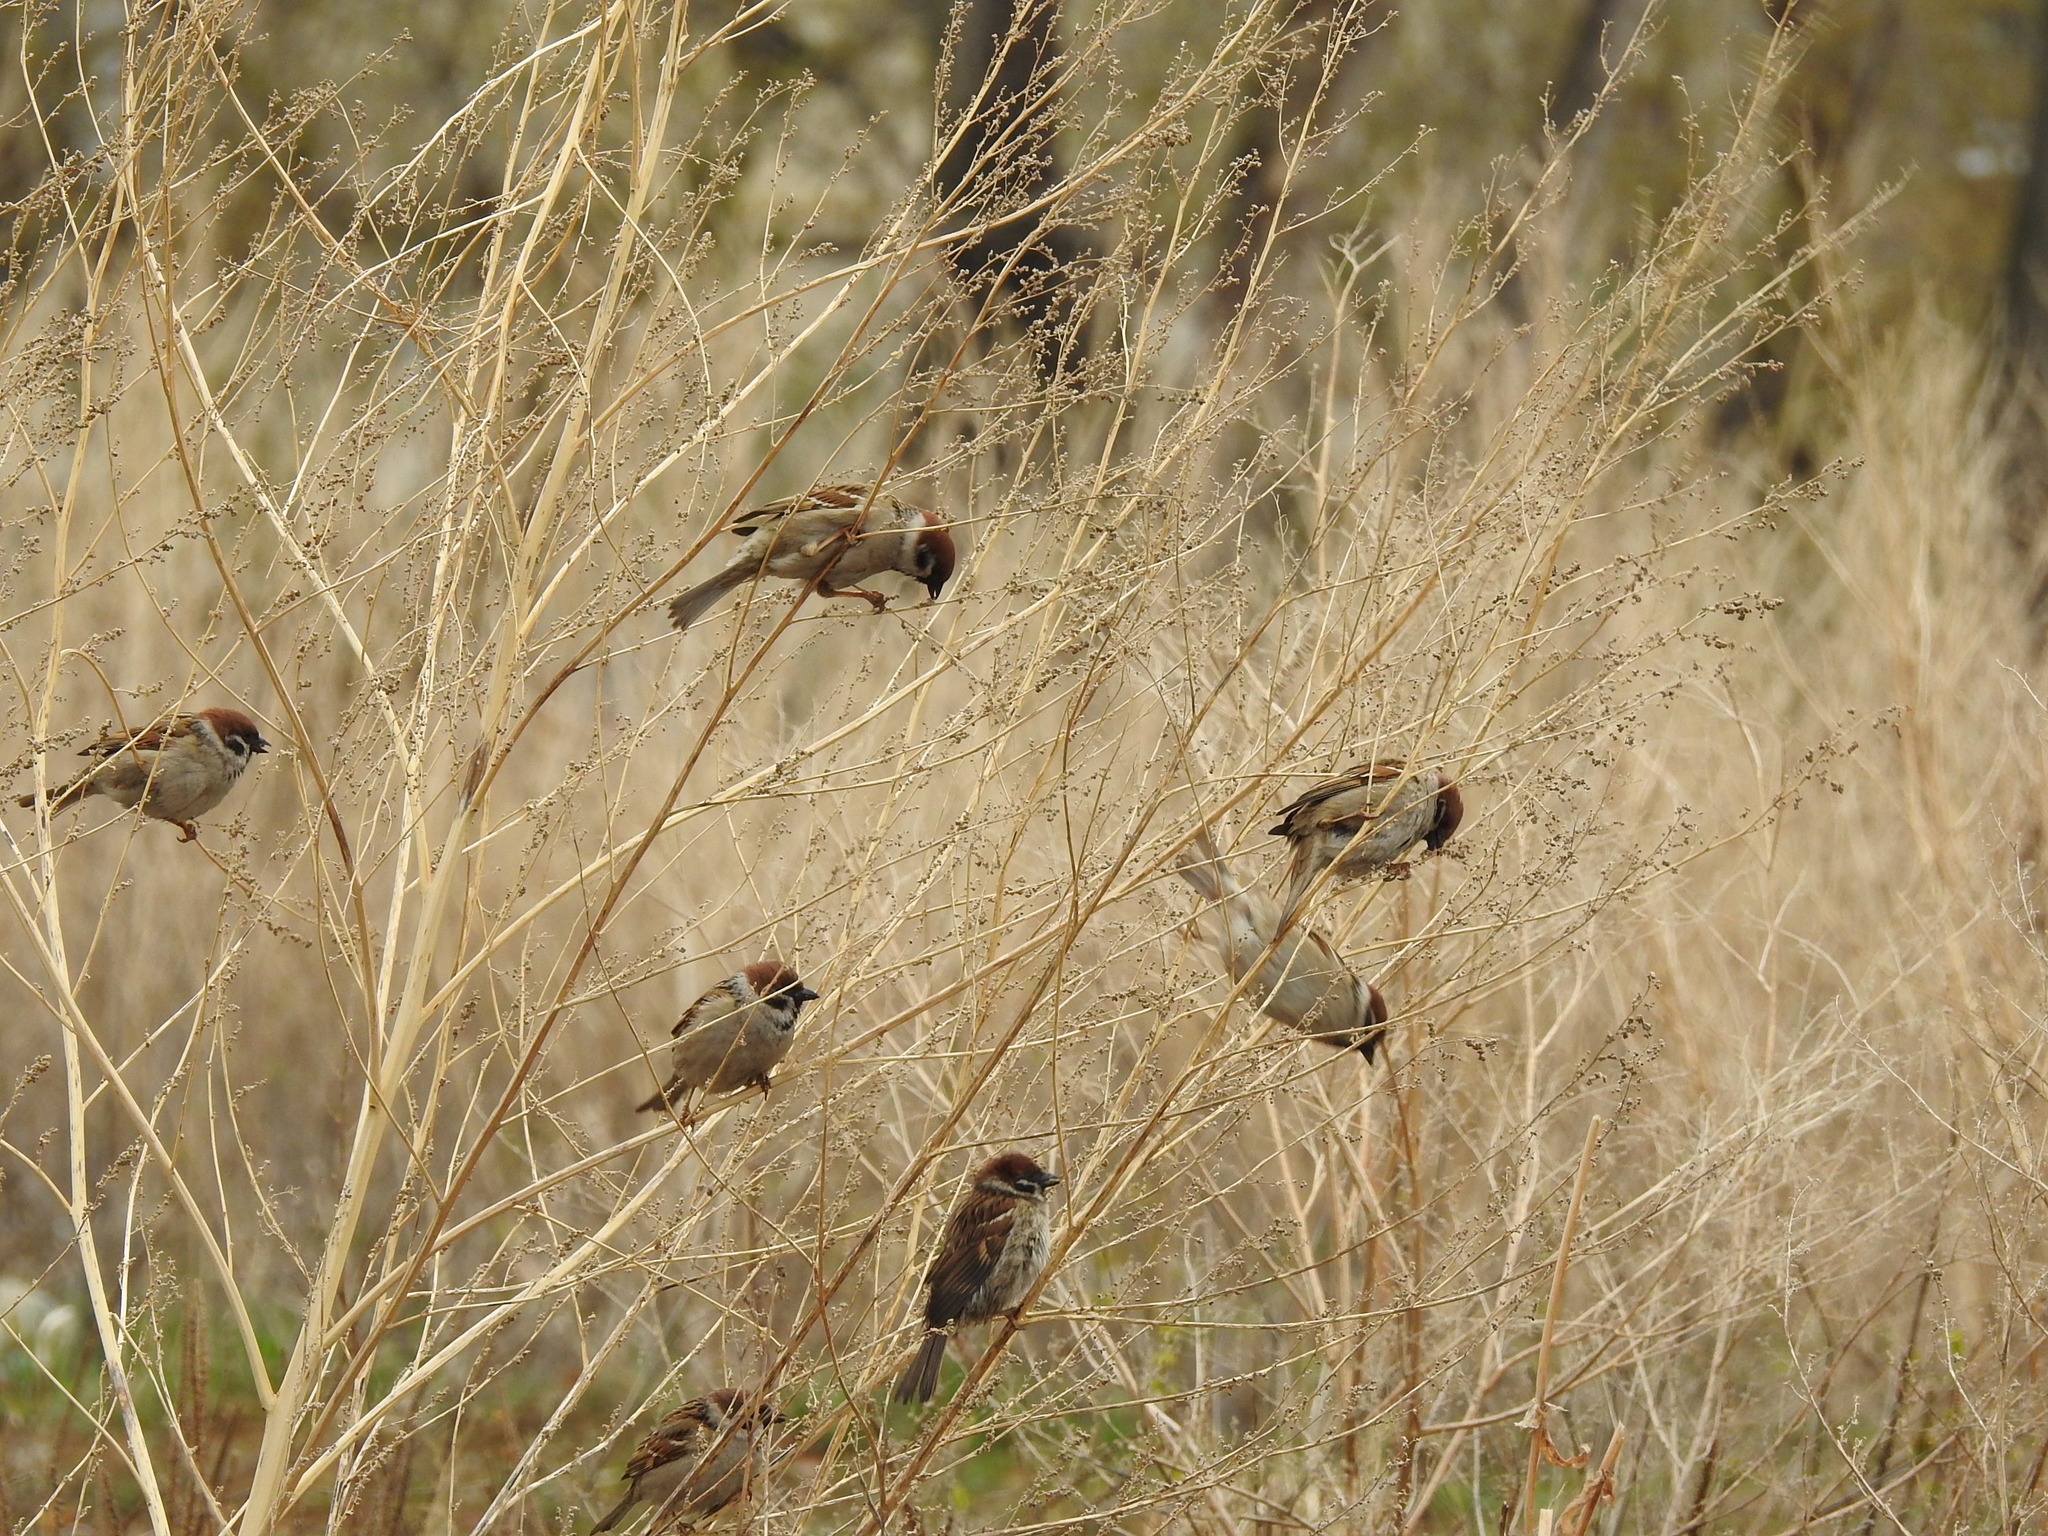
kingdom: Animalia
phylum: Chordata
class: Aves
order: Passeriformes
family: Passeridae
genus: Passer
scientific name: Passer montanus
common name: Eurasian tree sparrow
